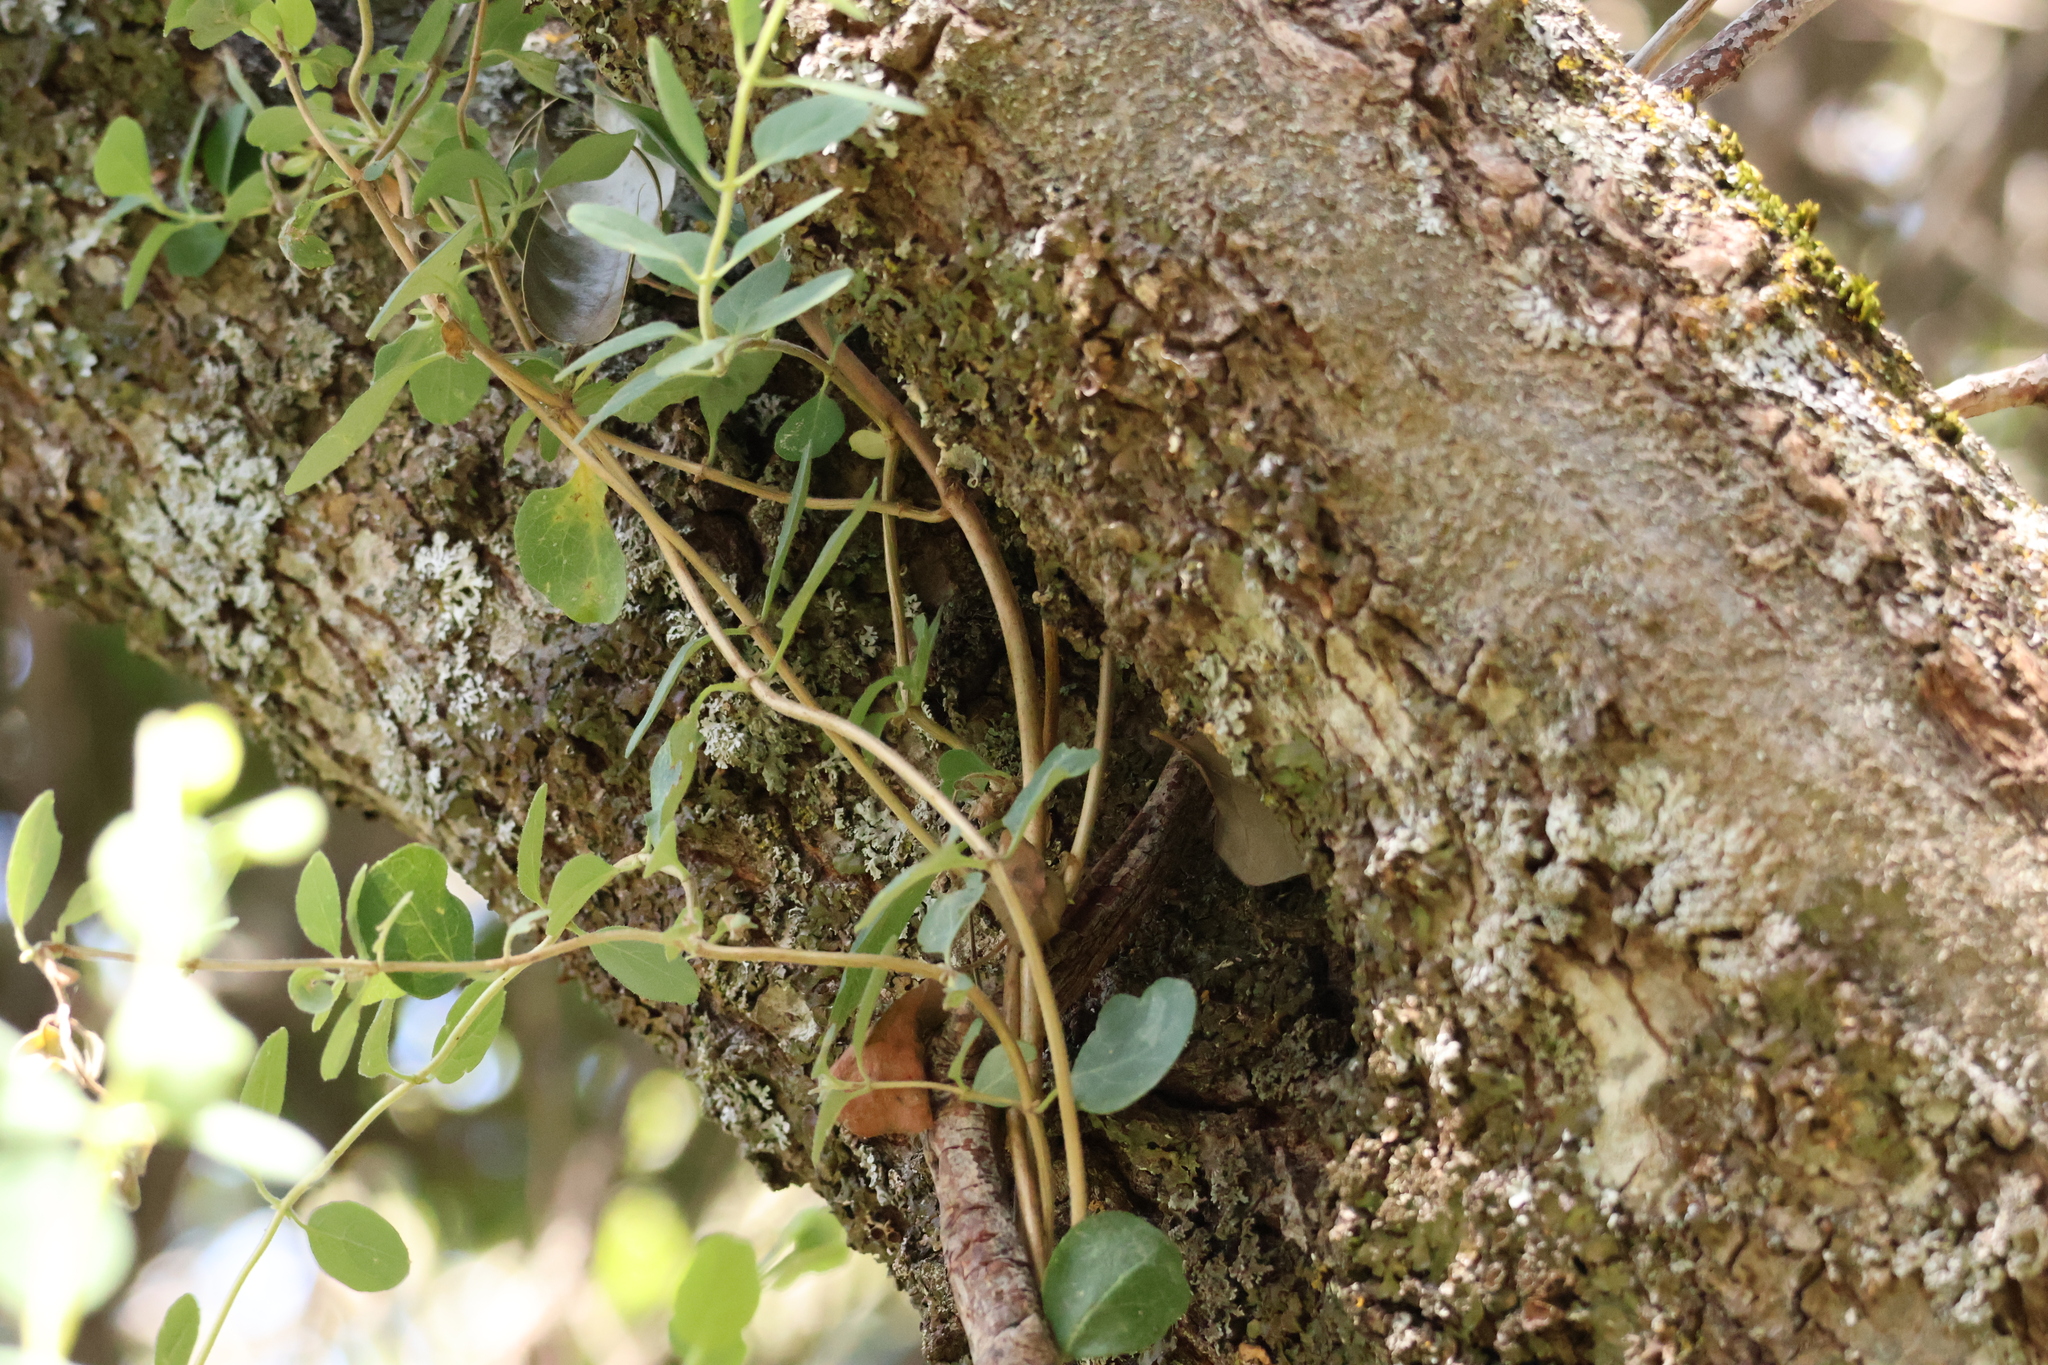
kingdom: Plantae
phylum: Tracheophyta
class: Magnoliopsida
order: Dipsacales
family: Caprifoliaceae
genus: Lonicera
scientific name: Lonicera subspicata
